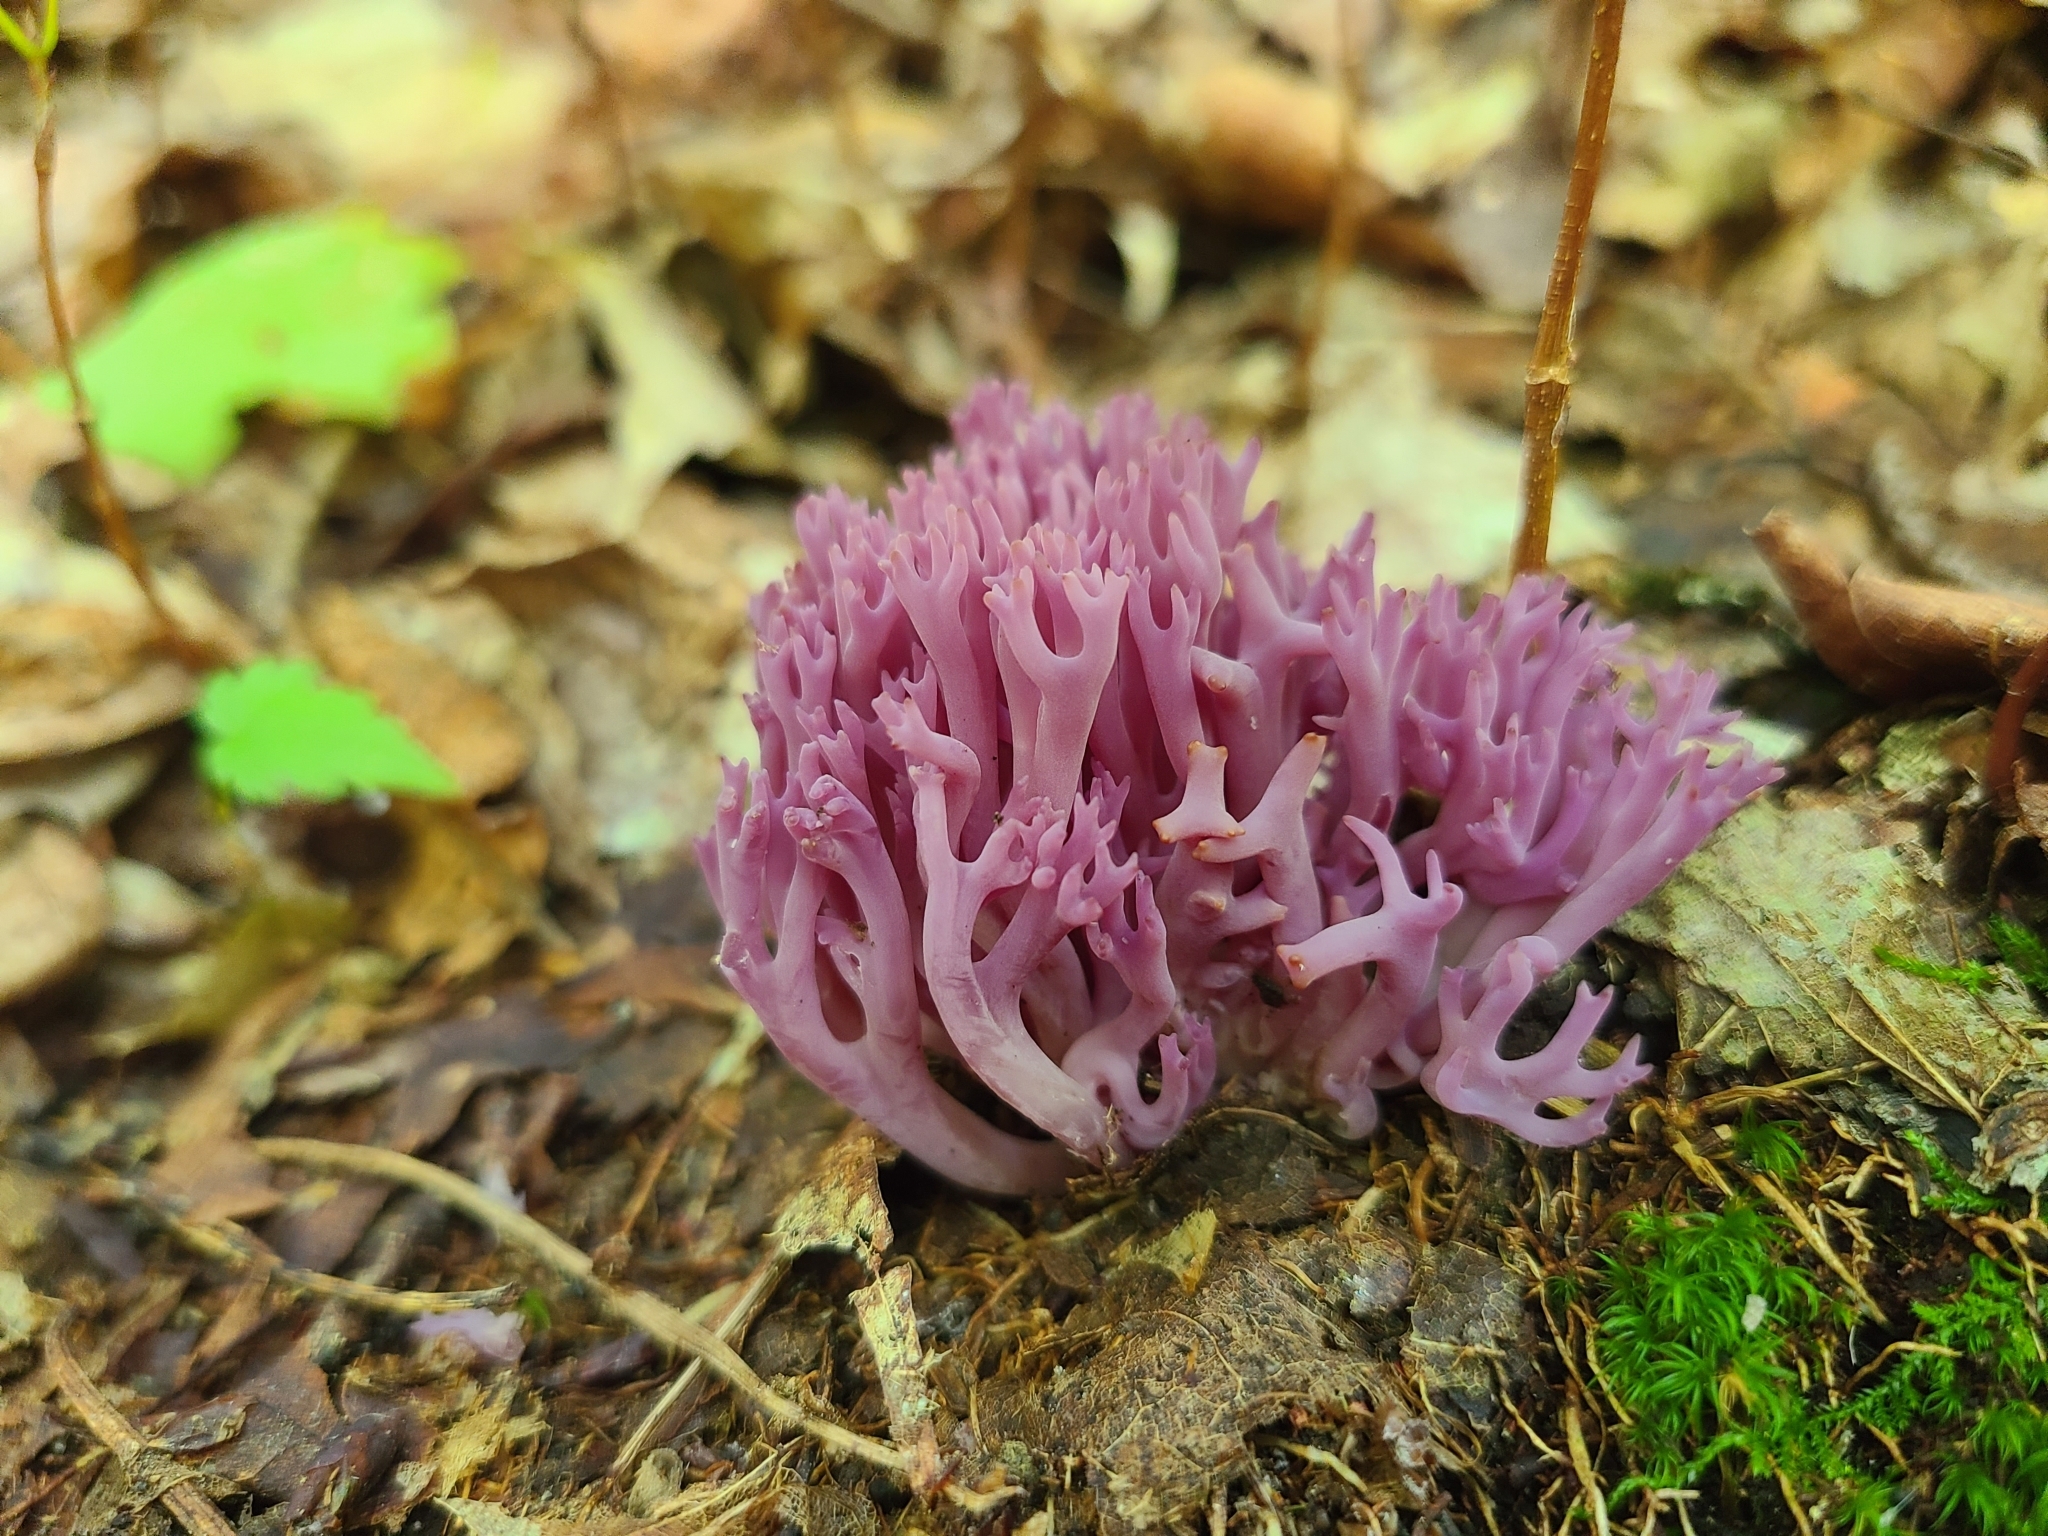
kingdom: Fungi
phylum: Basidiomycota
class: Agaricomycetes
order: Agaricales
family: Clavariaceae
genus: Clavaria
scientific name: Clavaria zollingeri
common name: Violet coral
